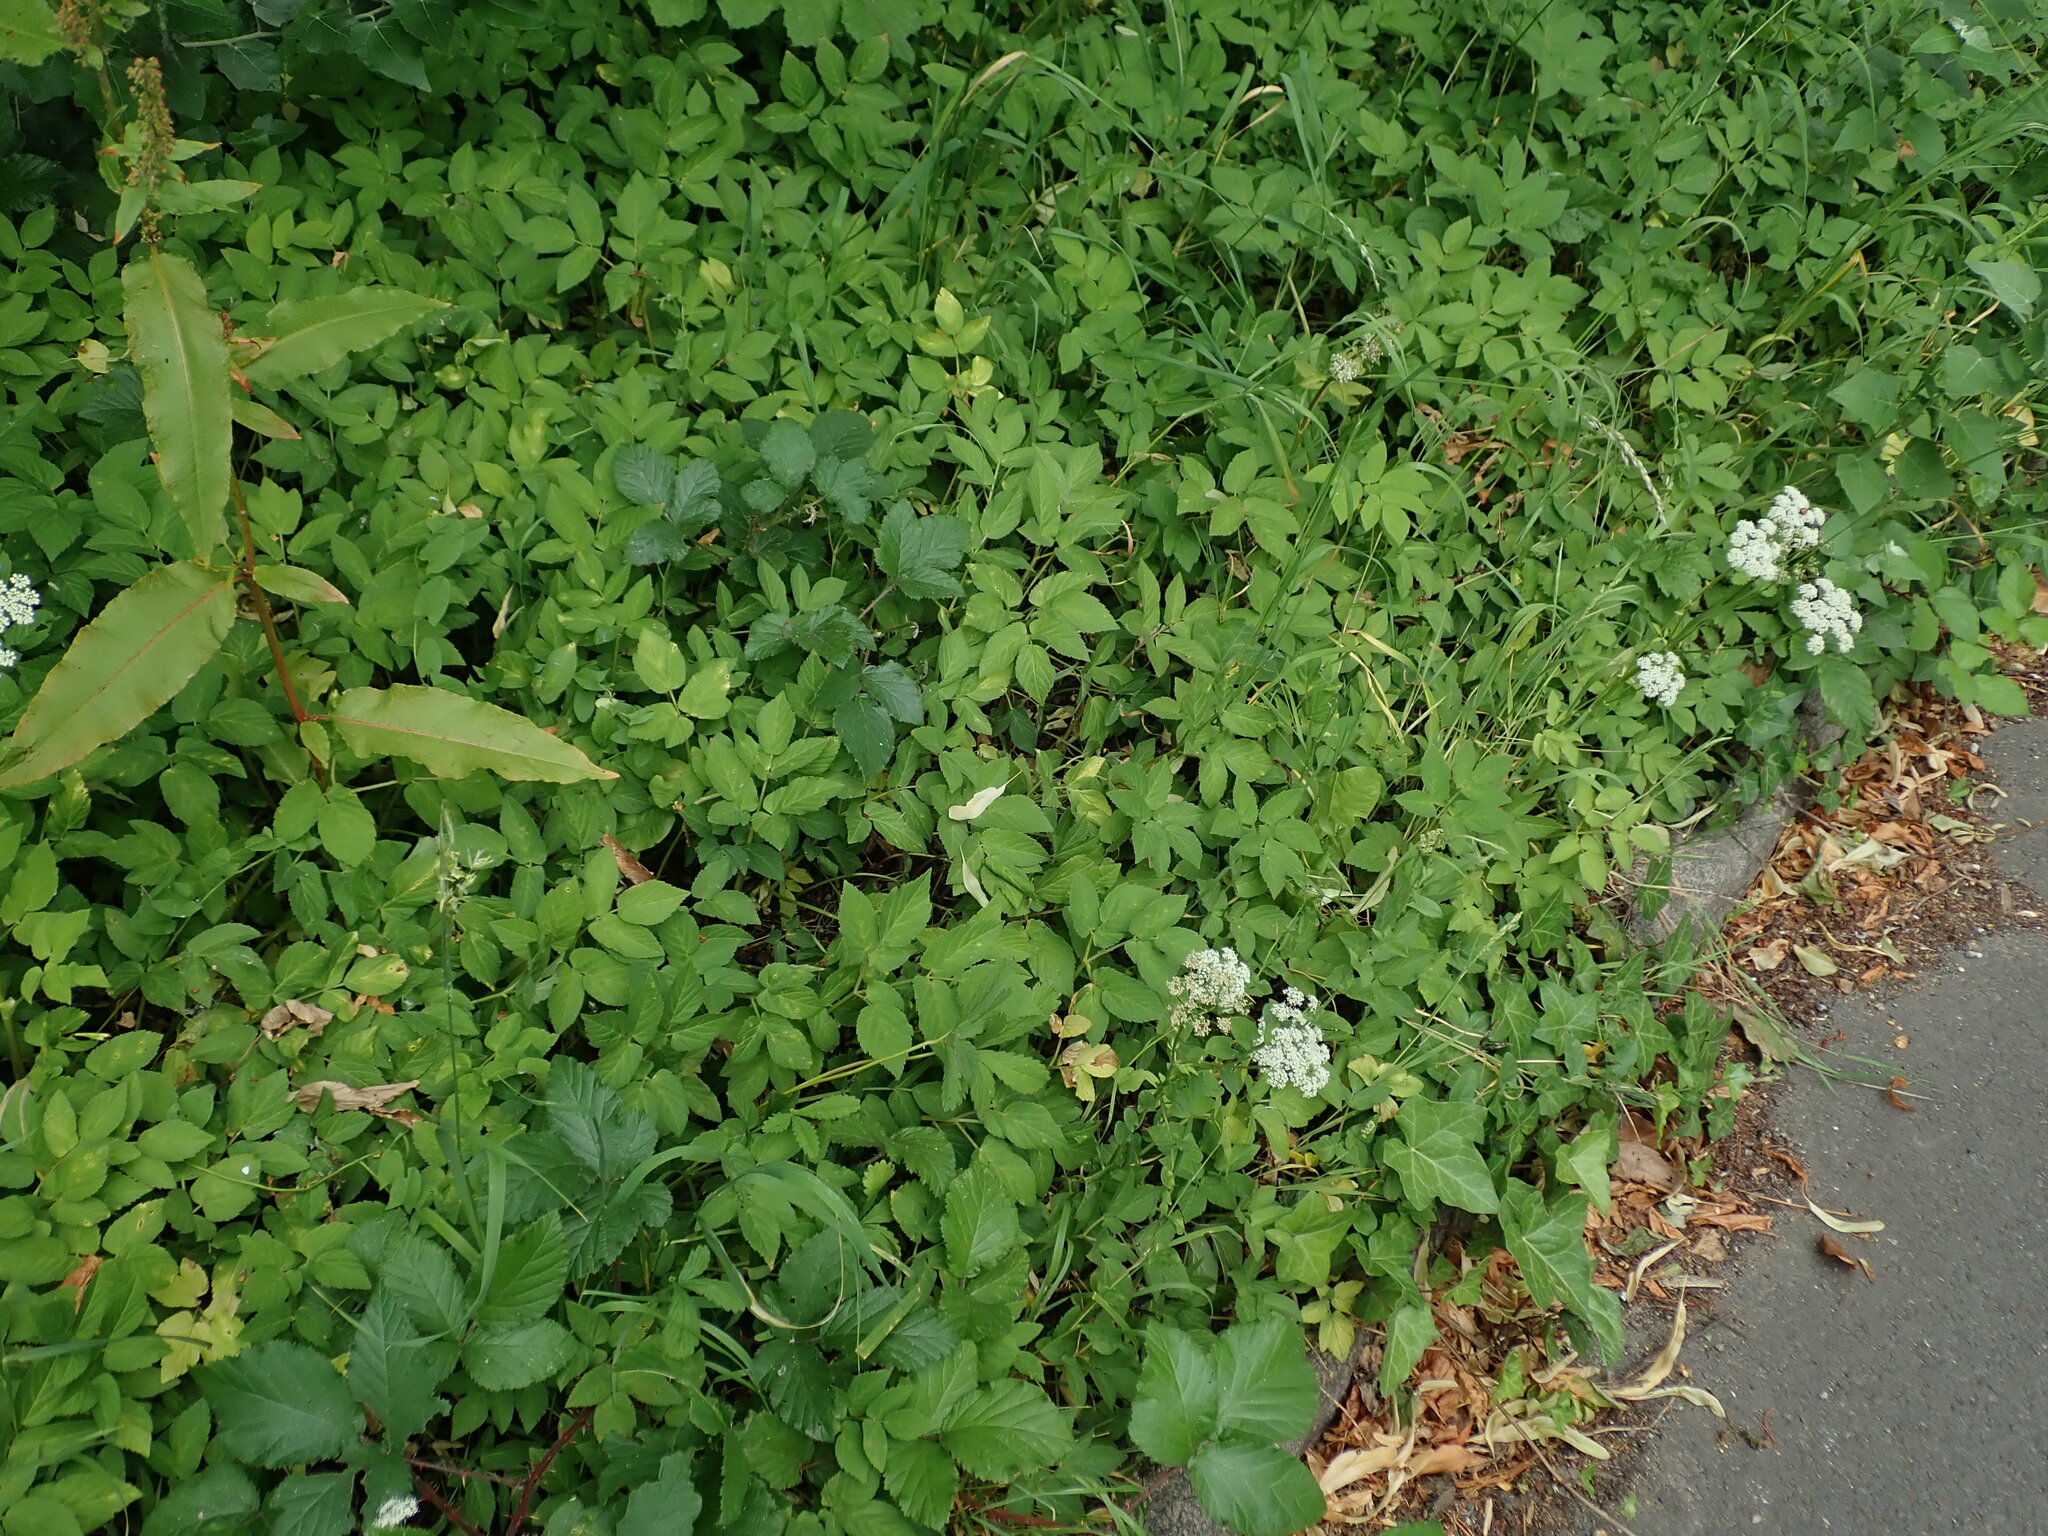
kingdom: Plantae
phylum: Tracheophyta
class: Magnoliopsida
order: Apiales
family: Apiaceae
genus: Aegopodium
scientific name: Aegopodium podagraria
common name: Ground-elder
